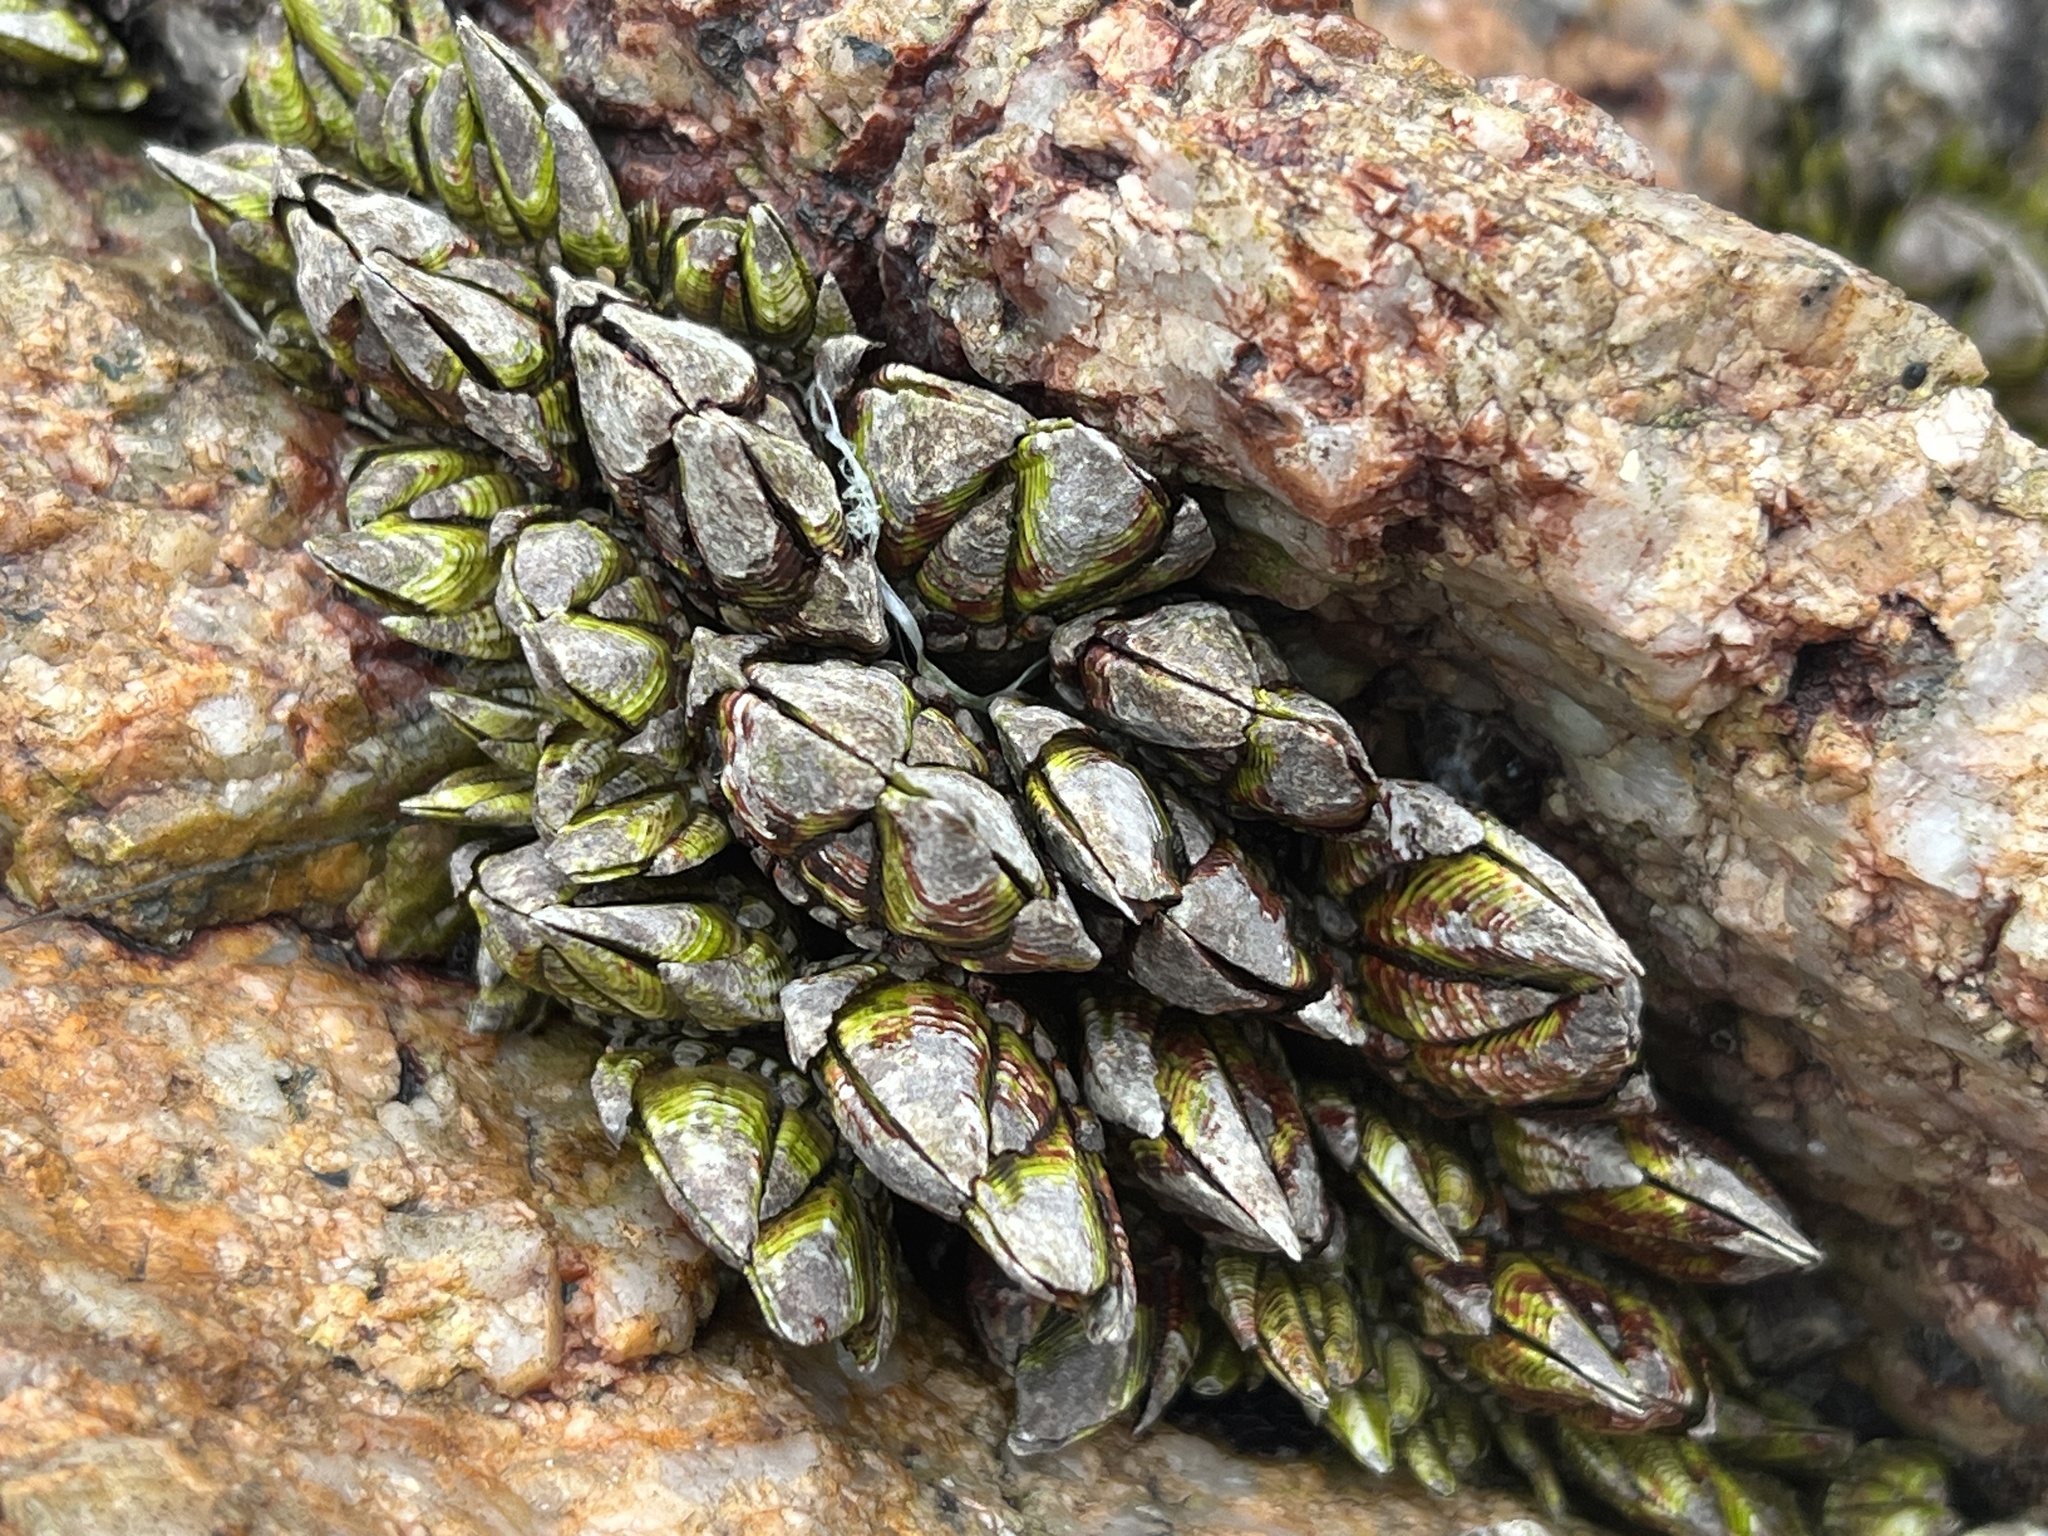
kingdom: Animalia
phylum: Arthropoda
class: Maxillopoda
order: Pedunculata
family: Pollicipedidae
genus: Capitulum
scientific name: Capitulum mitella
